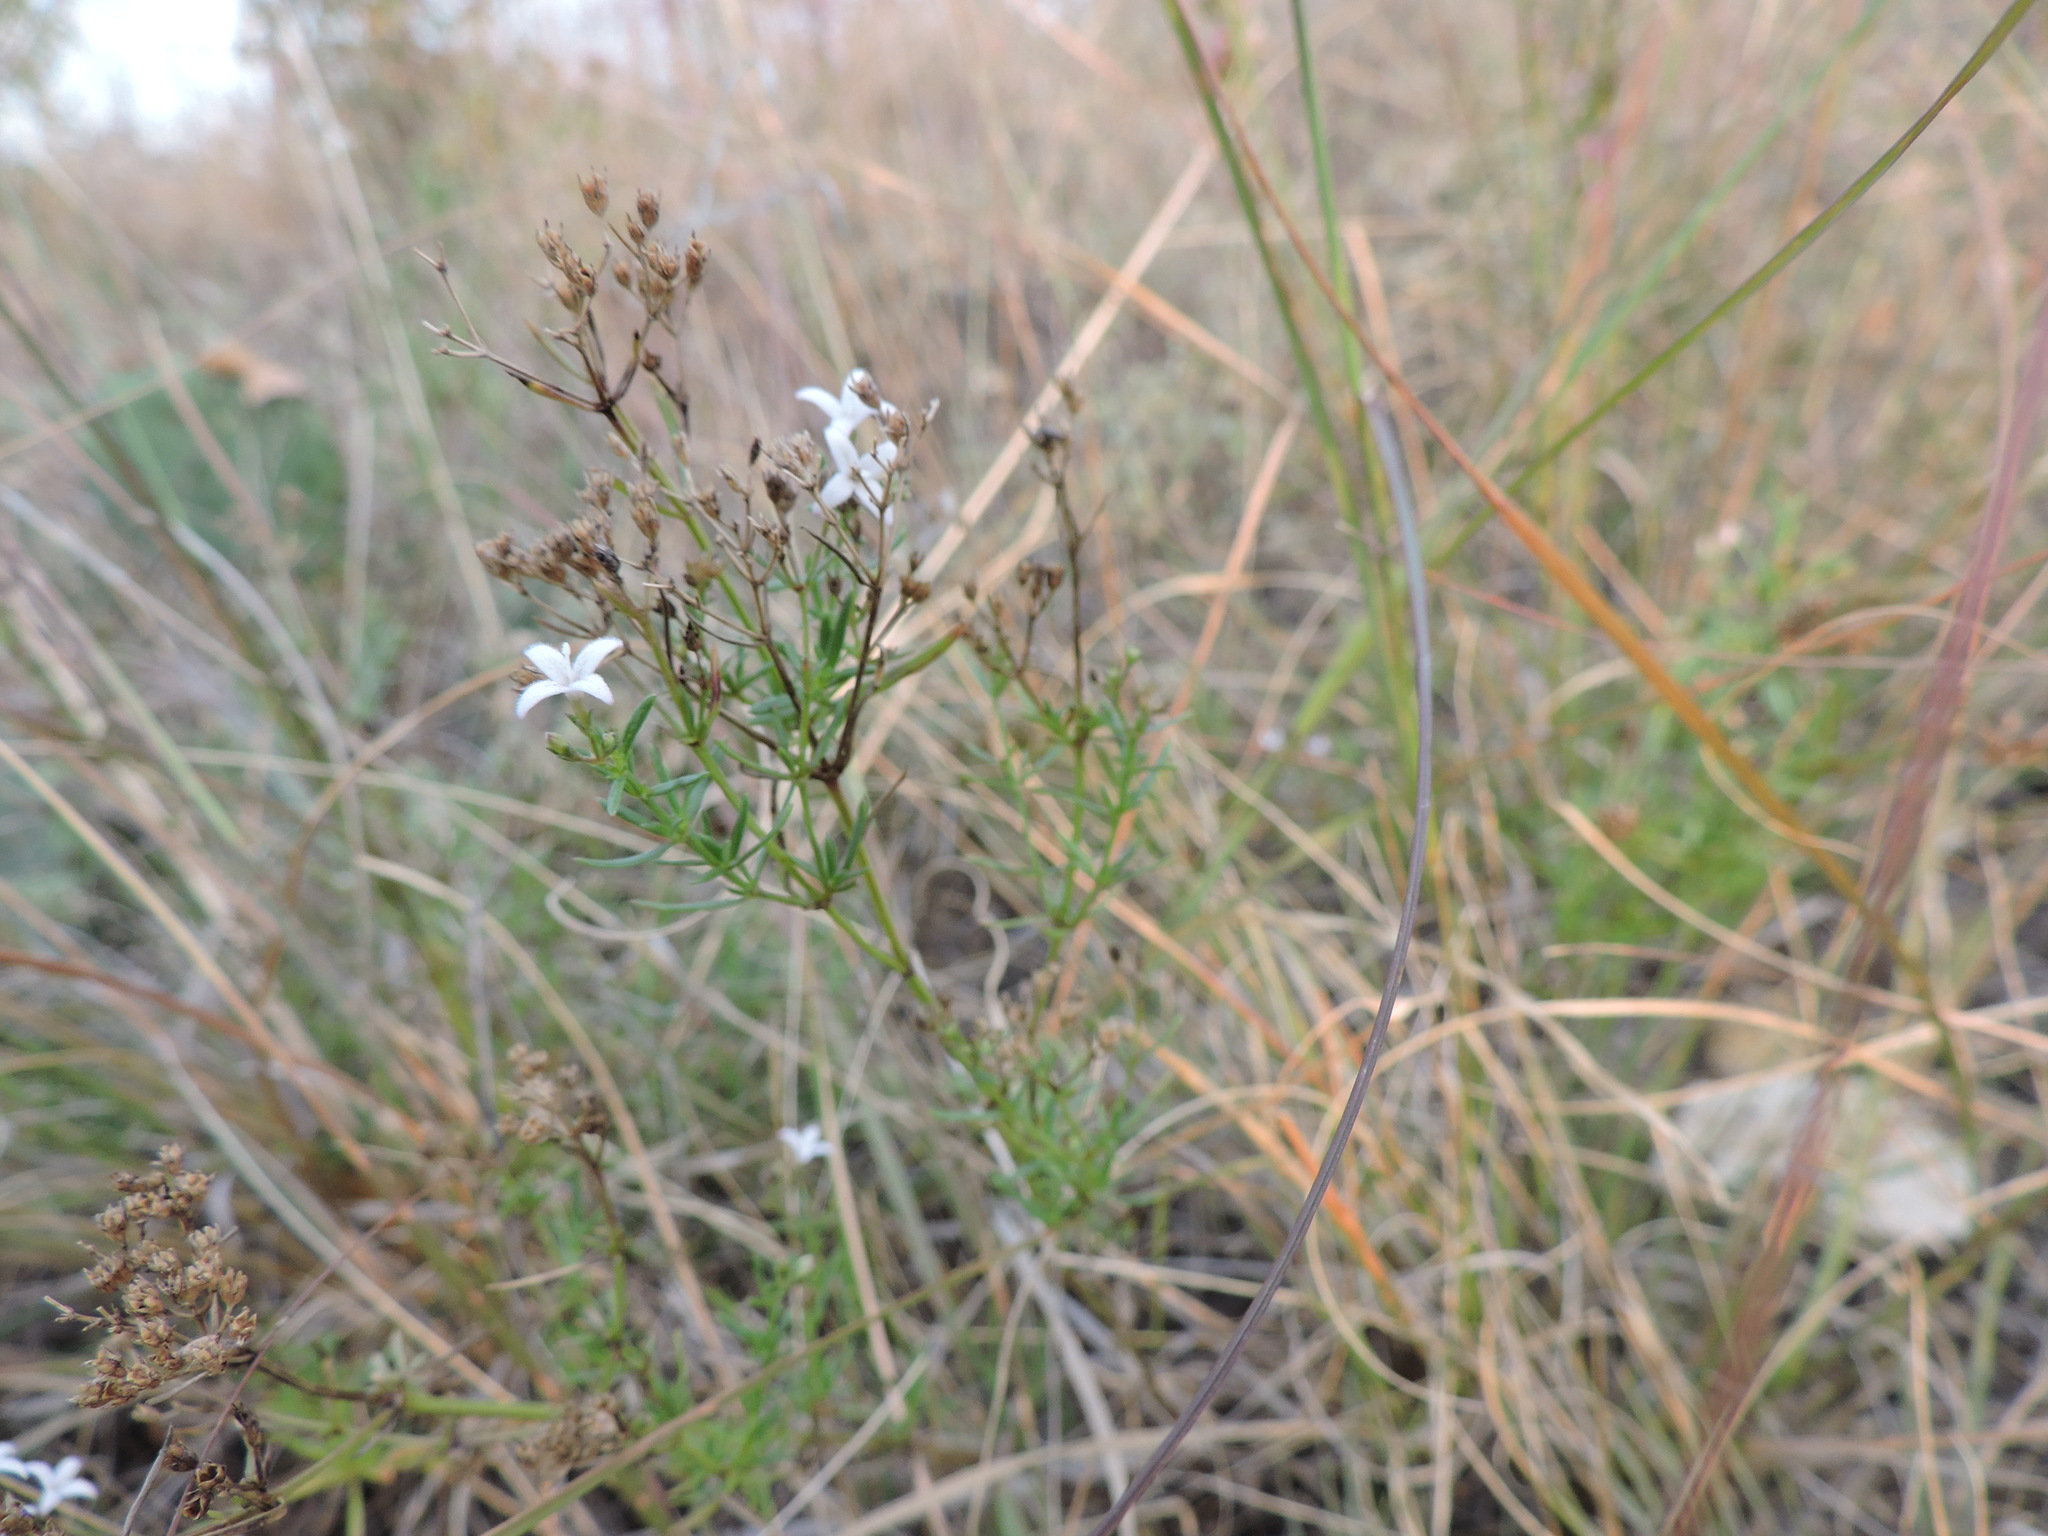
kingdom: Plantae
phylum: Tracheophyta
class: Magnoliopsida
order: Gentianales
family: Rubiaceae
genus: Stenaria
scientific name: Stenaria nigricans
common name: Diamondflowers
